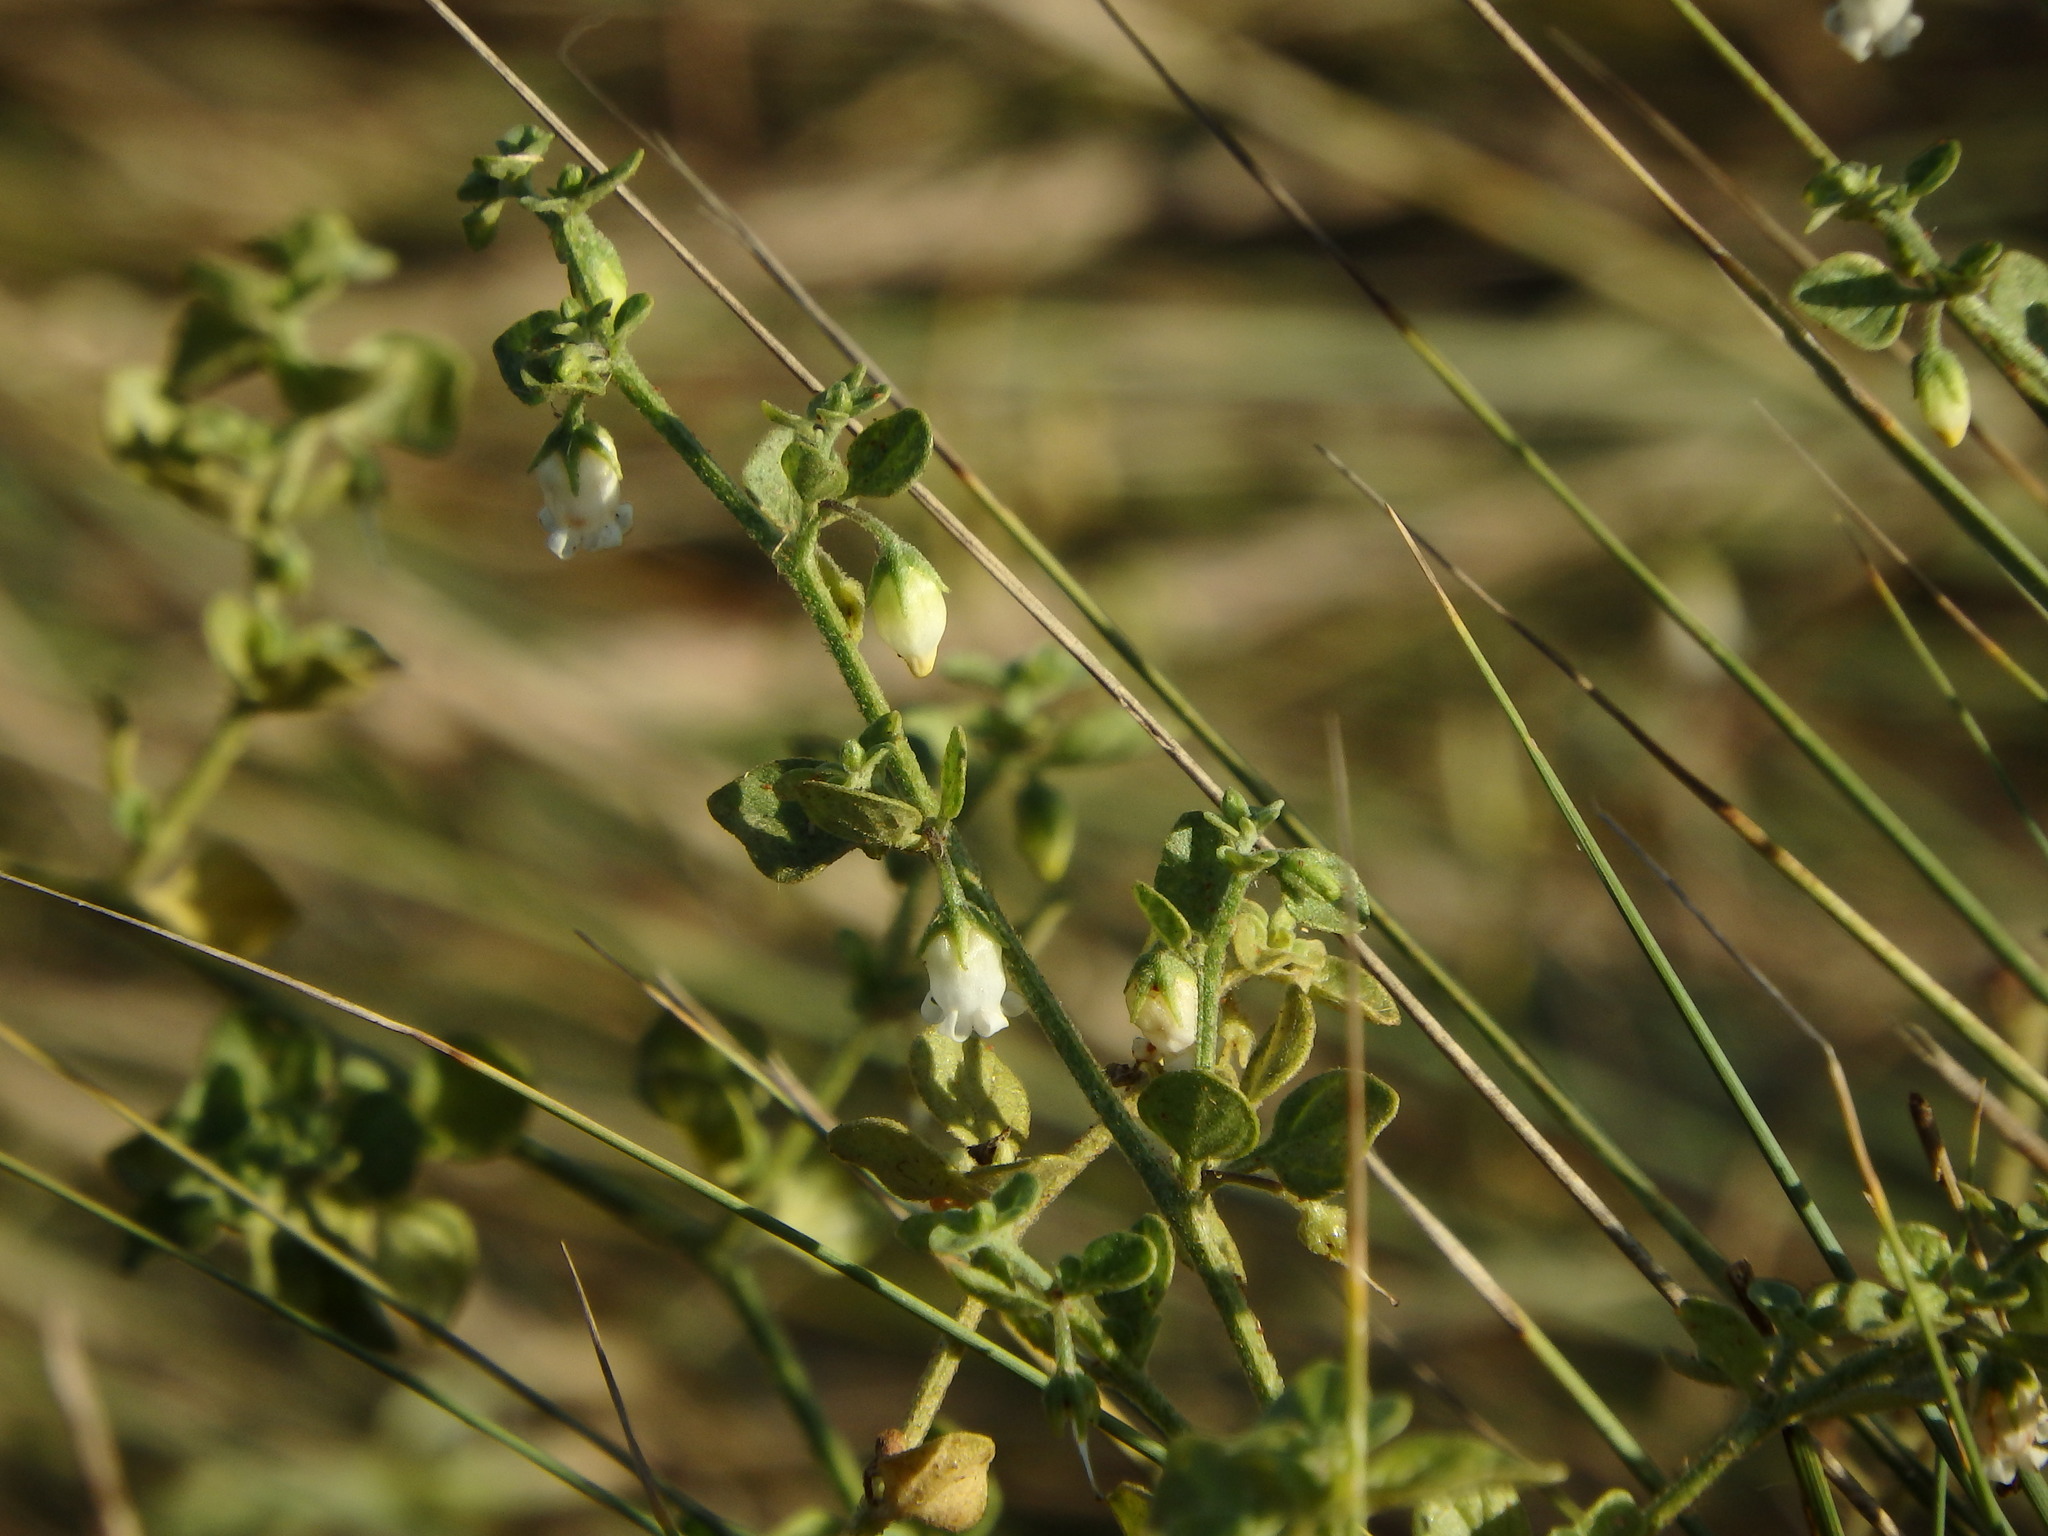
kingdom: Plantae
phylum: Tracheophyta
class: Magnoliopsida
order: Solanales
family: Solanaceae
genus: Salpichroa
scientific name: Salpichroa origanifolia
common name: Lily-of-the-valley-vine
